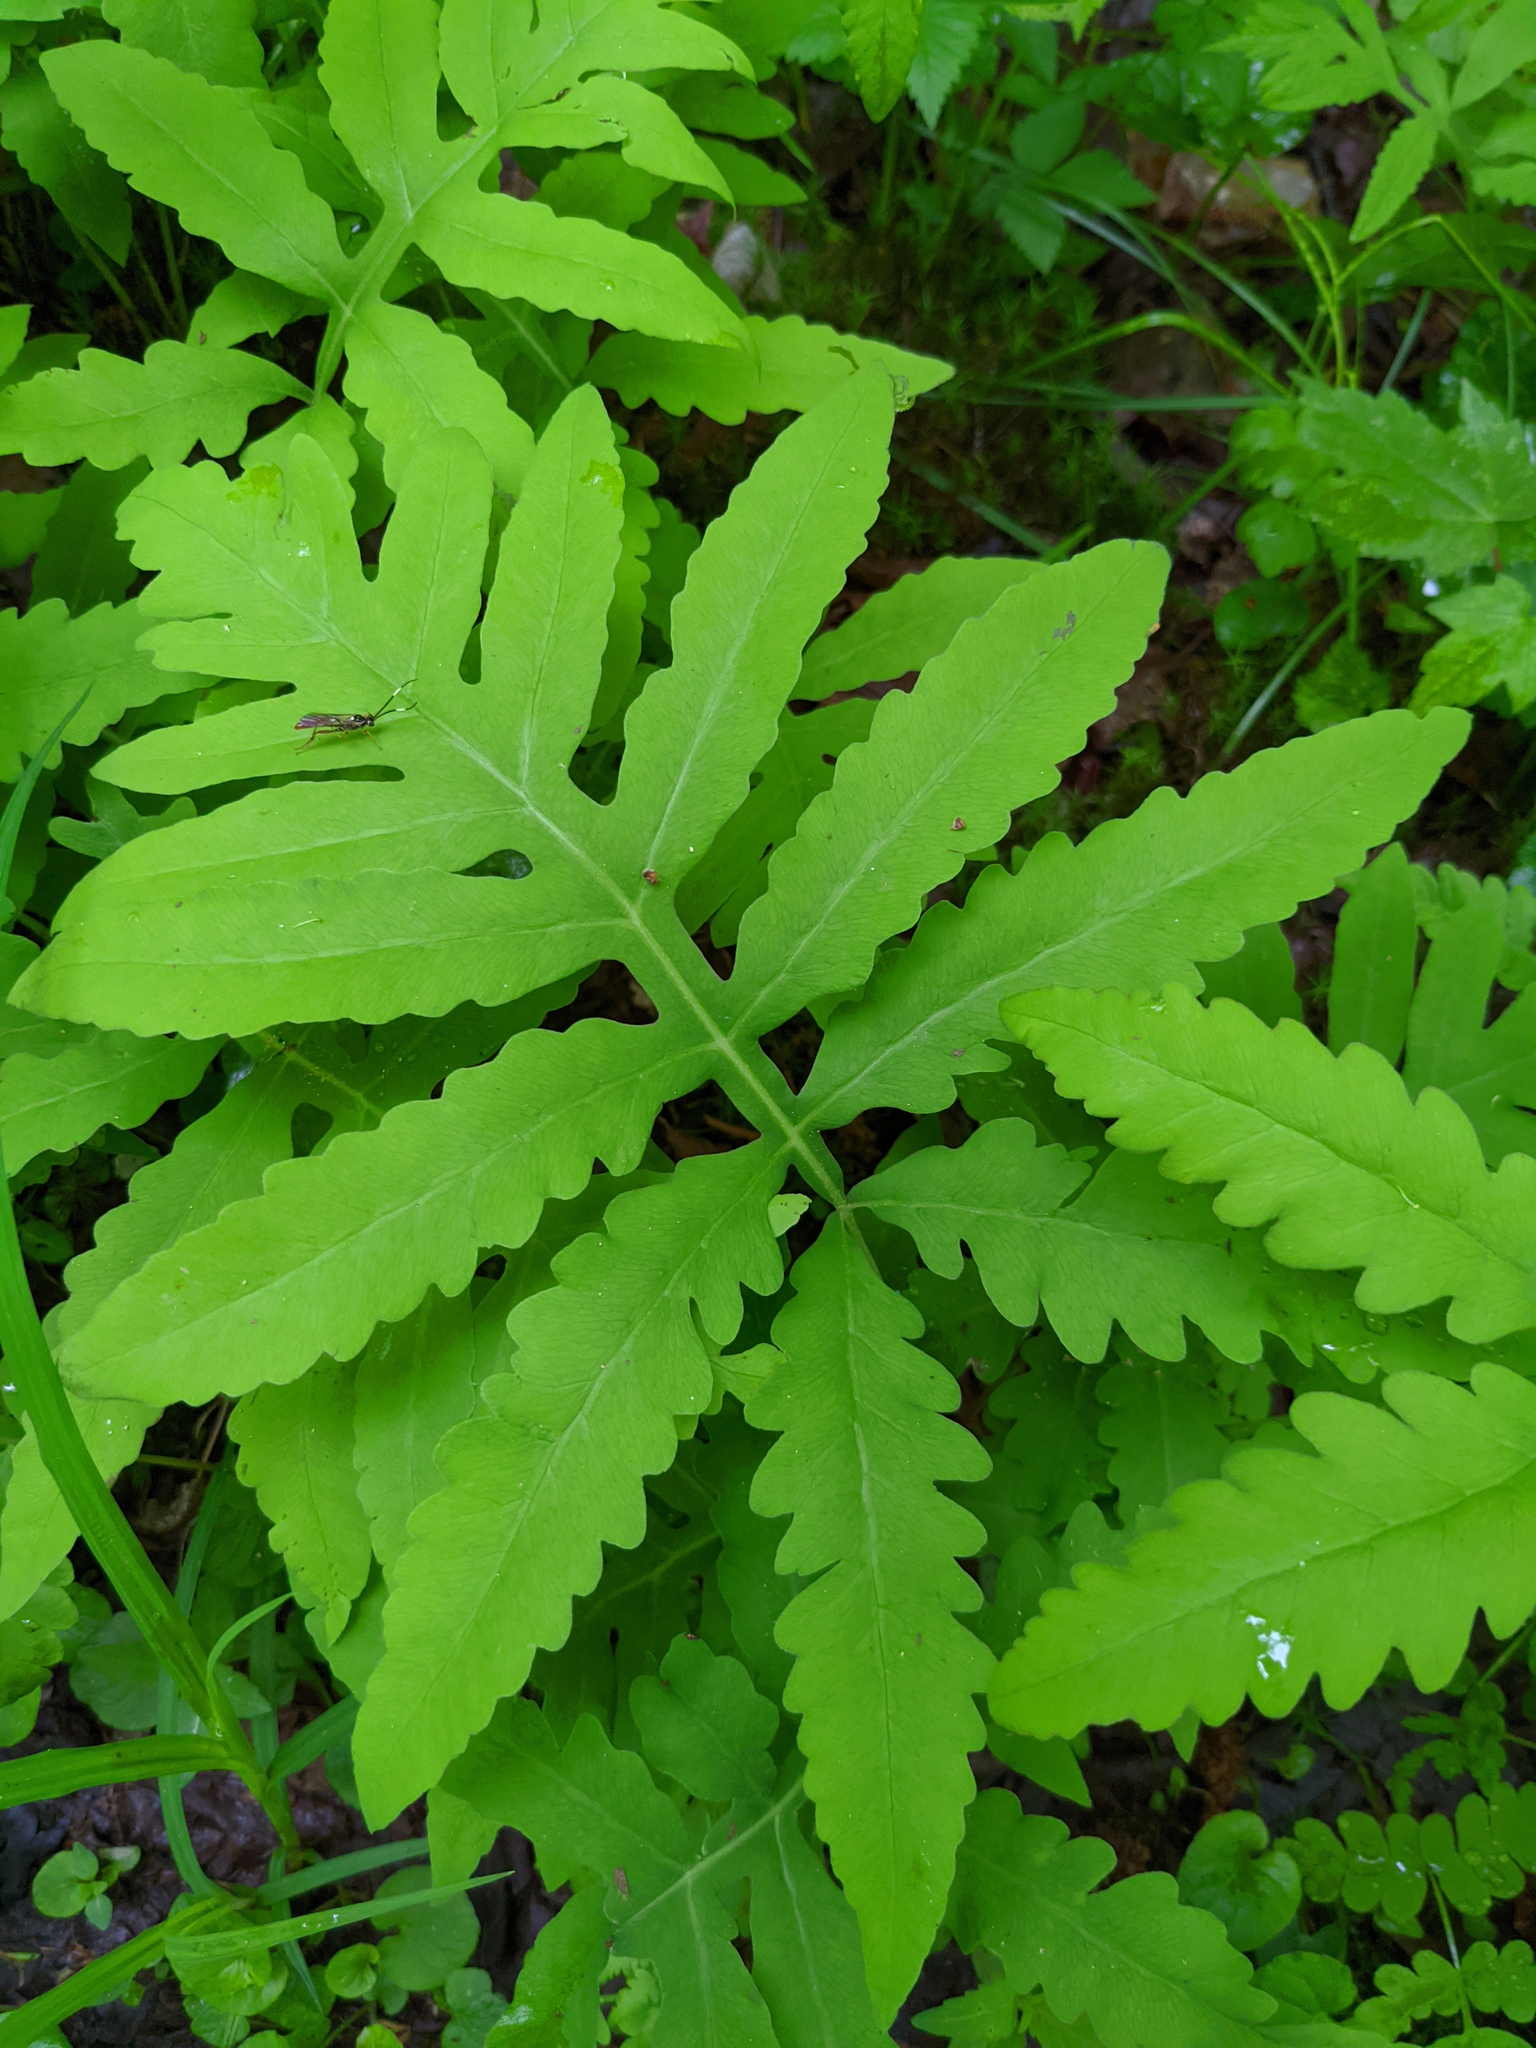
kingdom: Plantae
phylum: Tracheophyta
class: Polypodiopsida
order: Polypodiales
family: Onocleaceae
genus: Onoclea
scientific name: Onoclea sensibilis
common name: Sensitive fern
